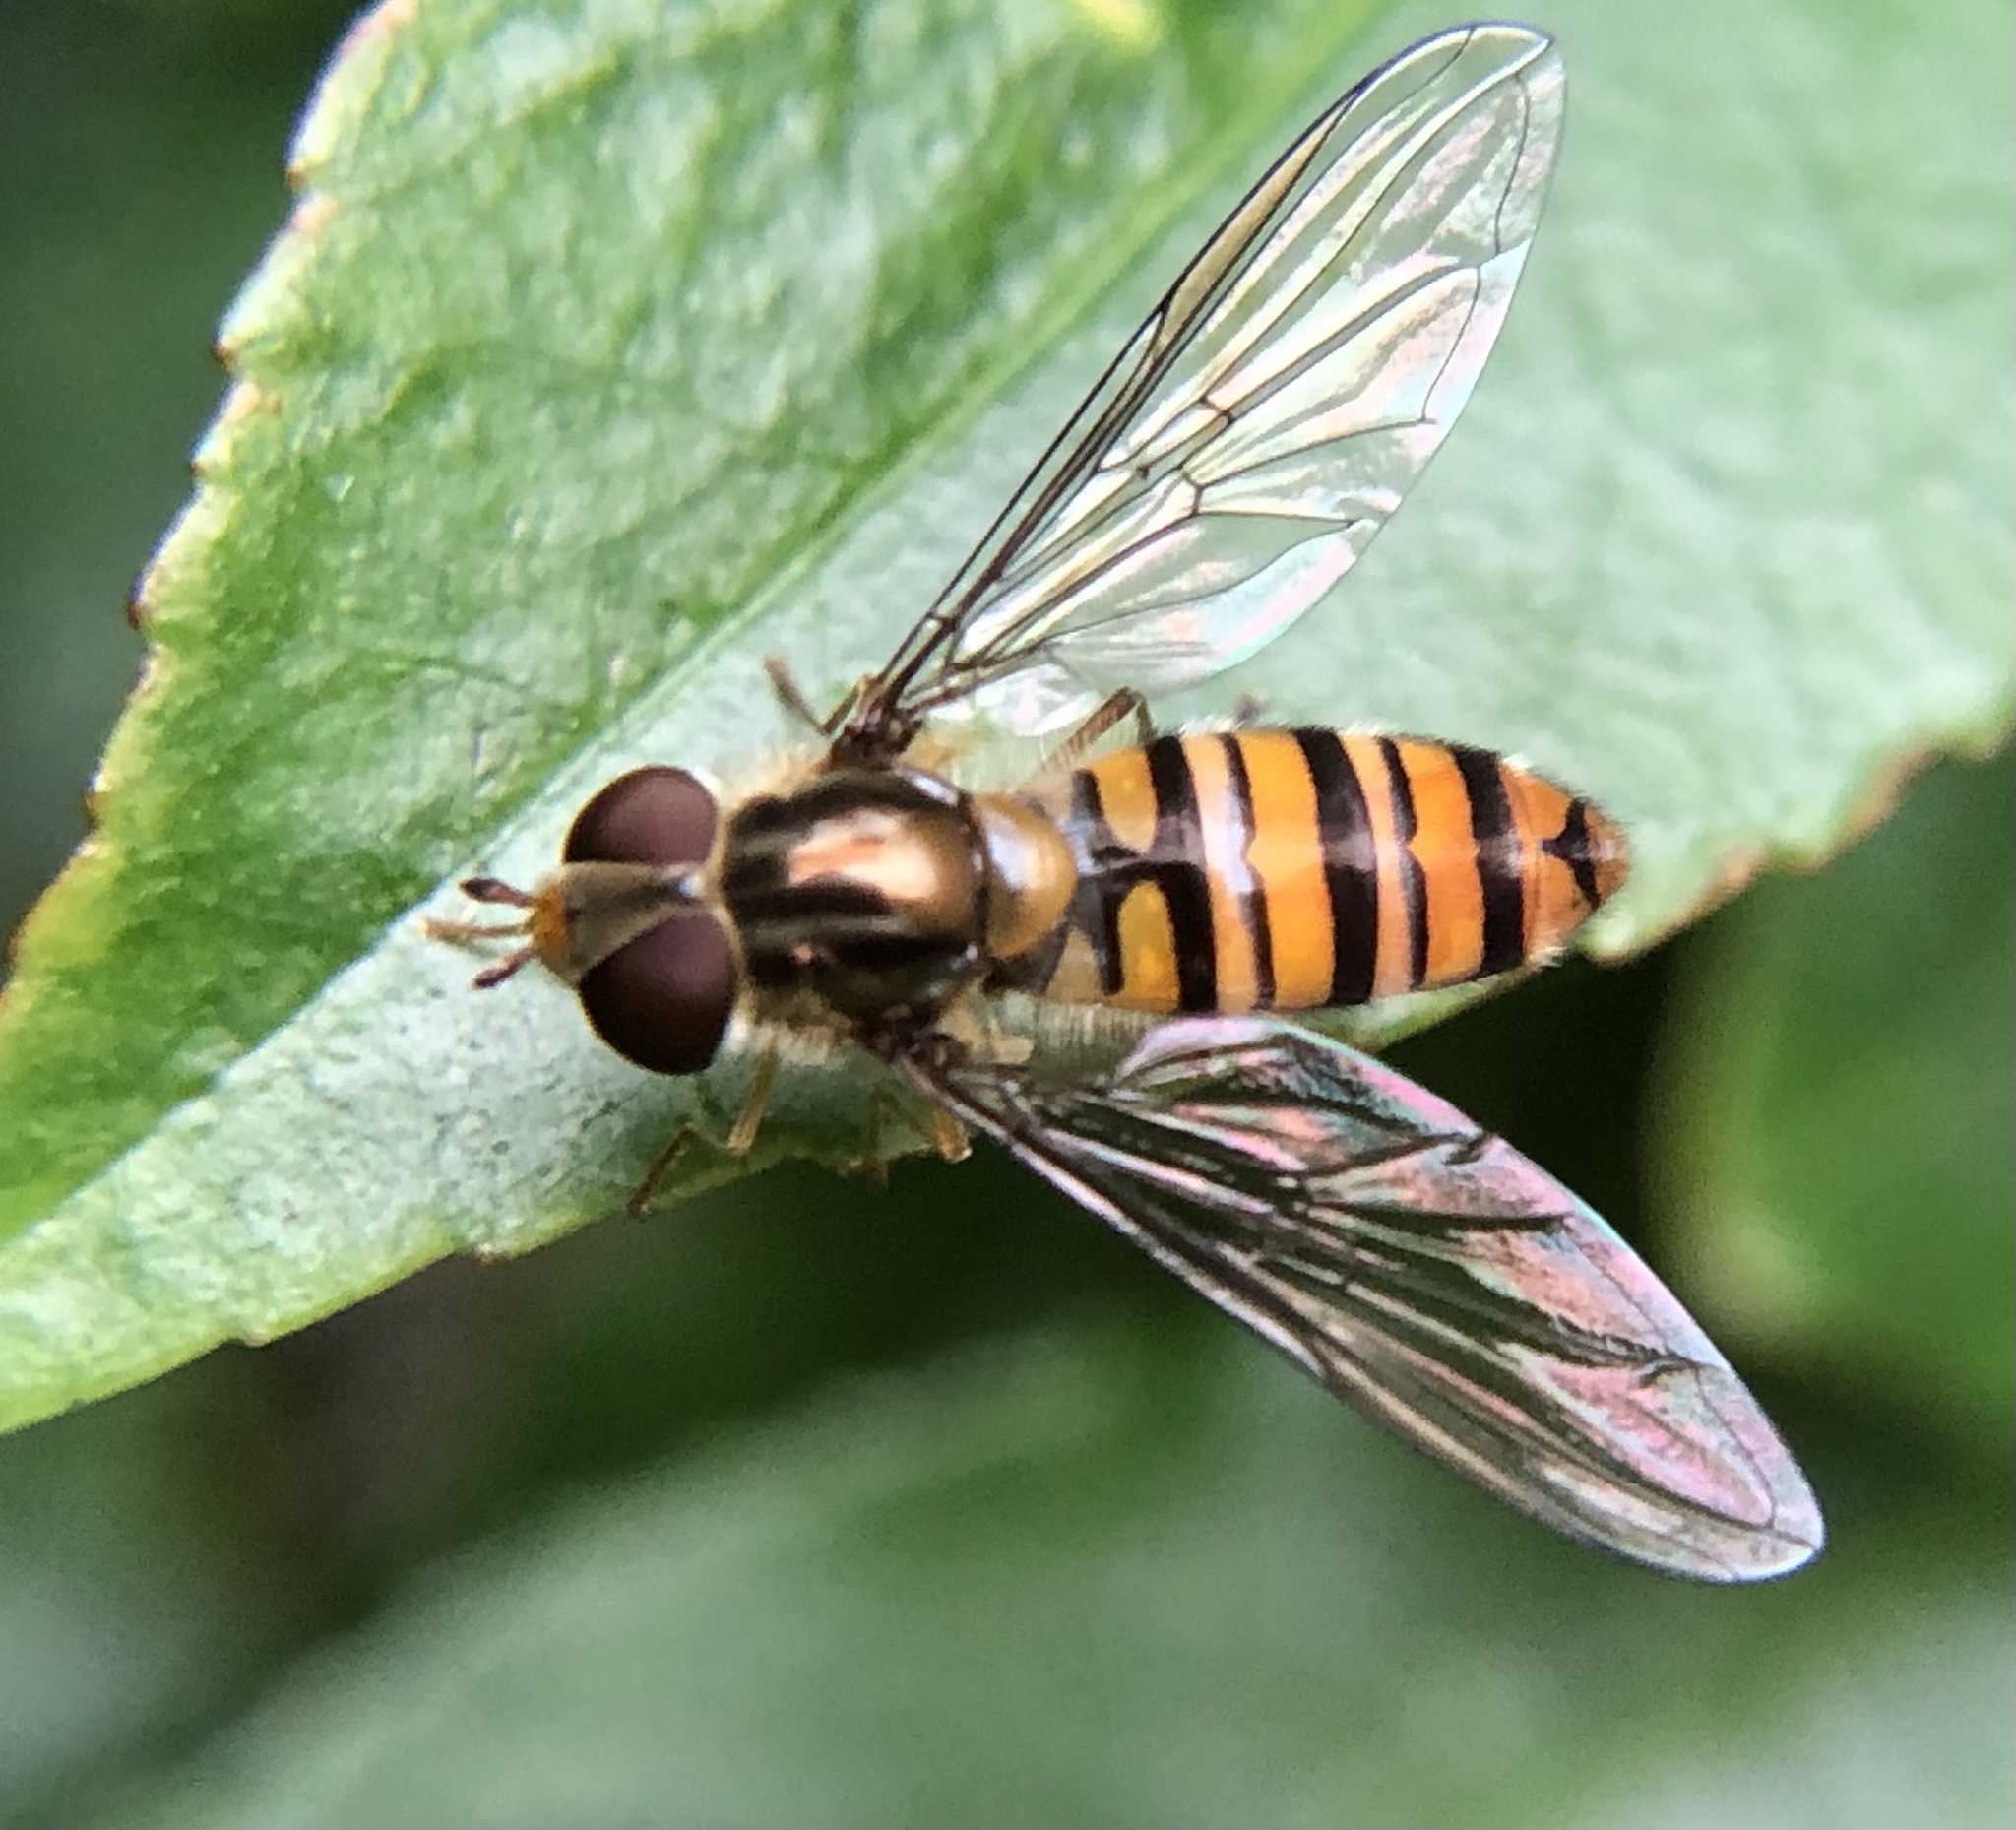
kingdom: Animalia
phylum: Arthropoda
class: Insecta
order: Diptera
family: Syrphidae
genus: Episyrphus
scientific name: Episyrphus balteatus
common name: Marmalade hoverfly
